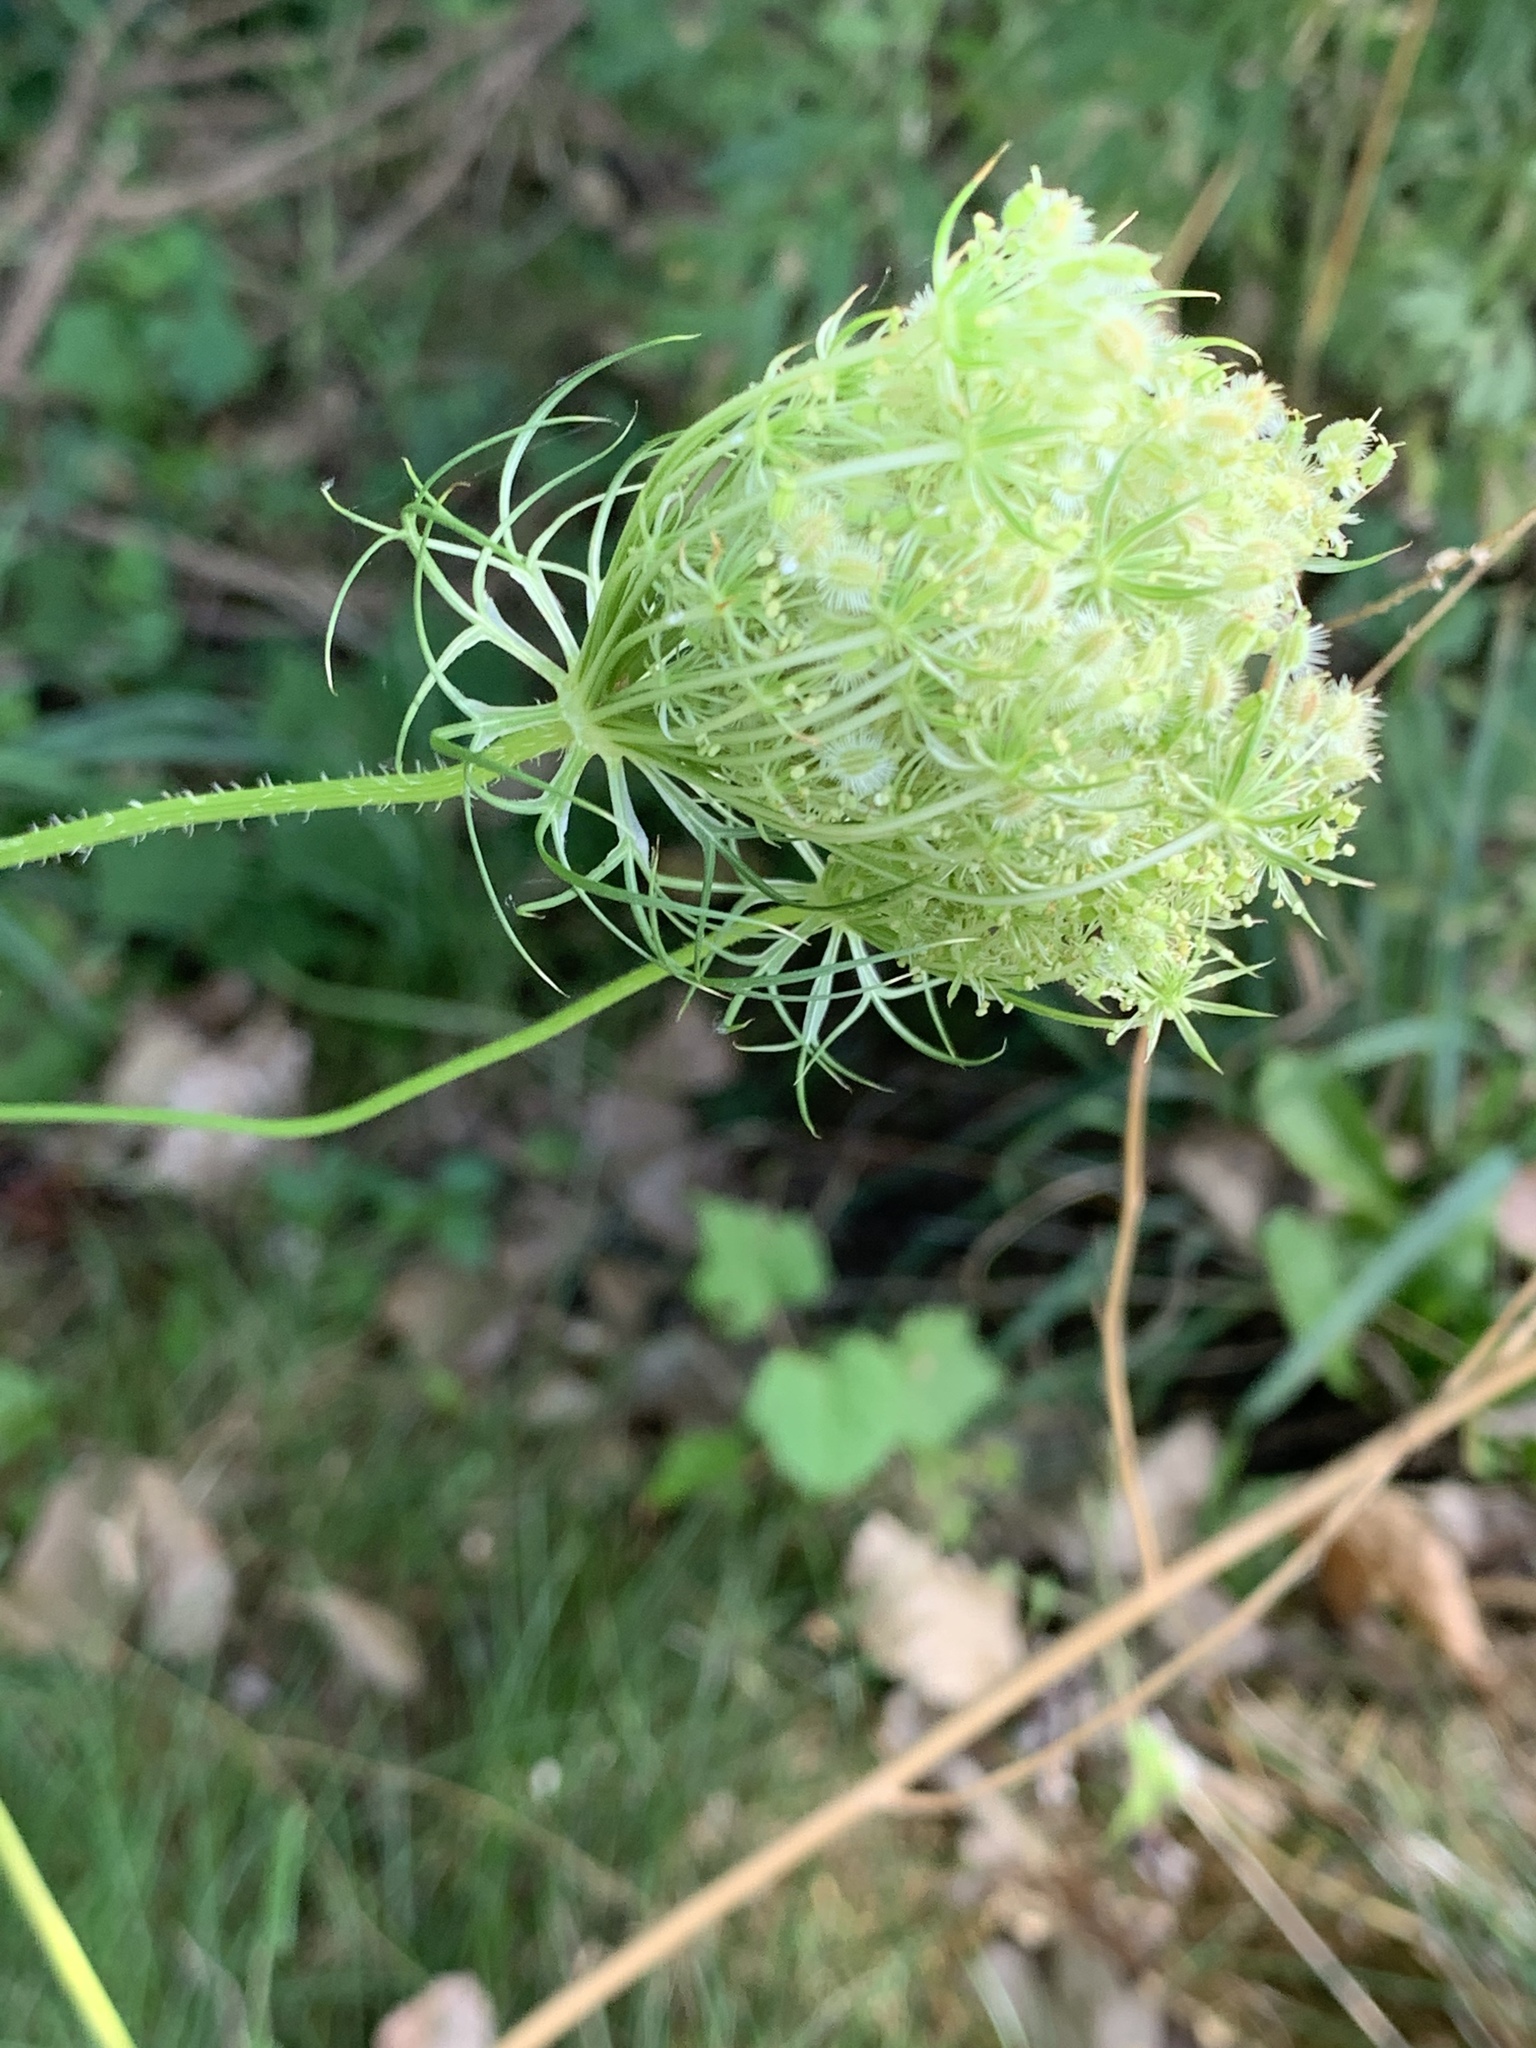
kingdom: Plantae
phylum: Tracheophyta
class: Magnoliopsida
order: Apiales
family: Apiaceae
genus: Daucus
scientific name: Daucus carota
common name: Wild carrot
